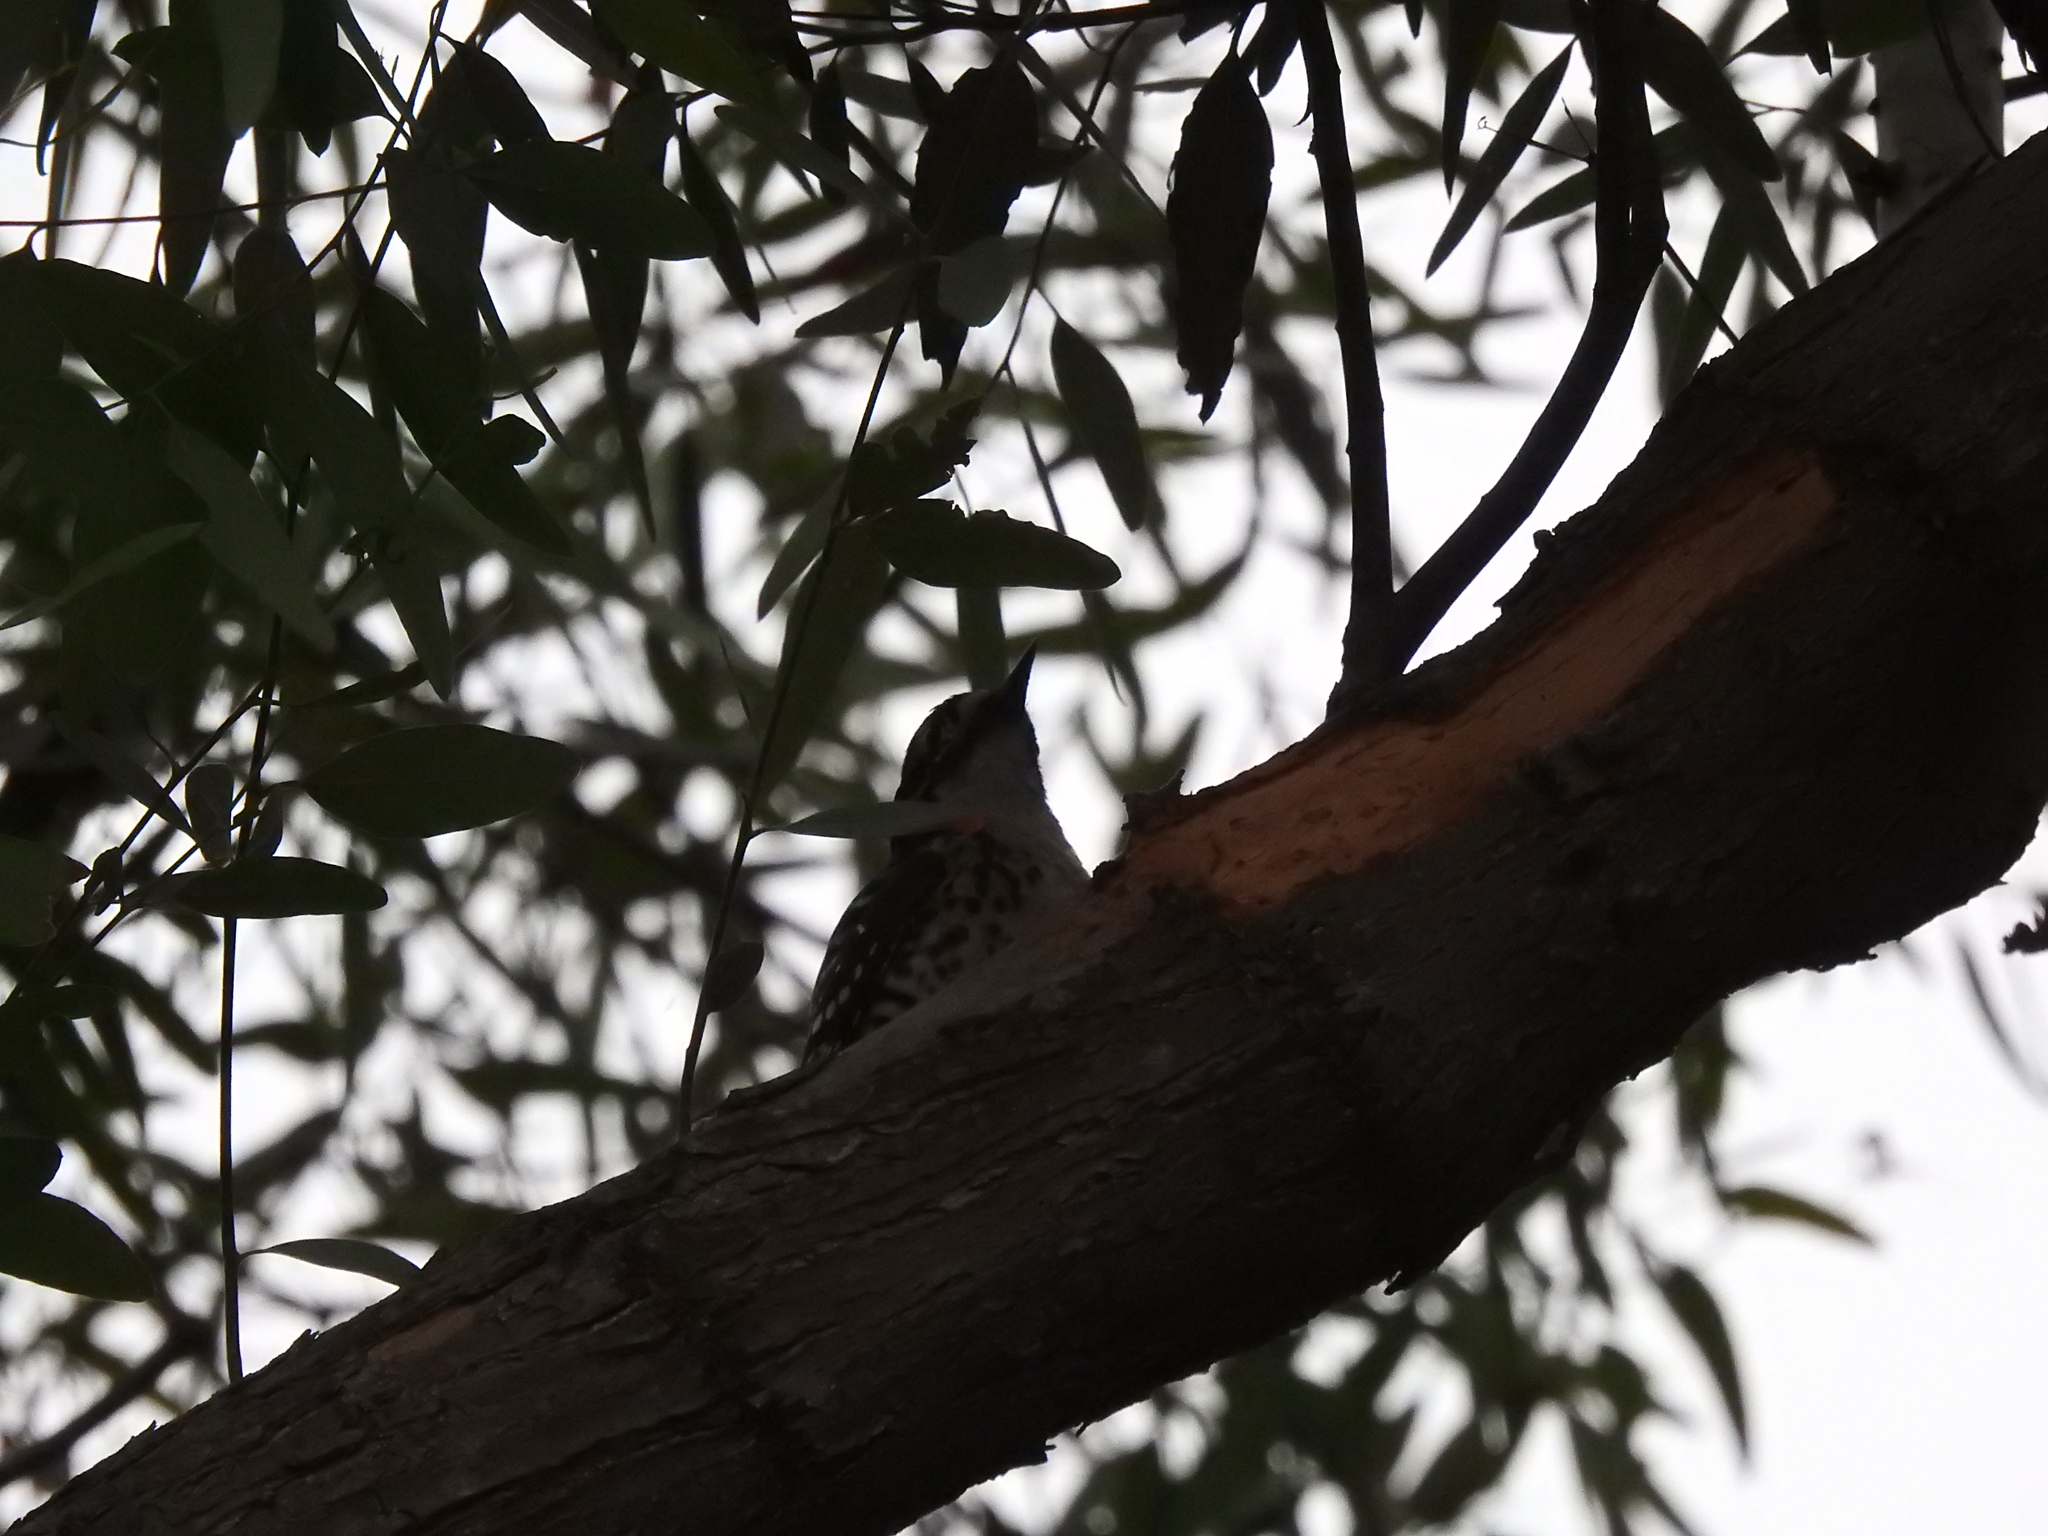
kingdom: Animalia
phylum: Chordata
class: Aves
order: Piciformes
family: Picidae
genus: Dryobates
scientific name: Dryobates nuttallii
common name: Nuttall's woodpecker
